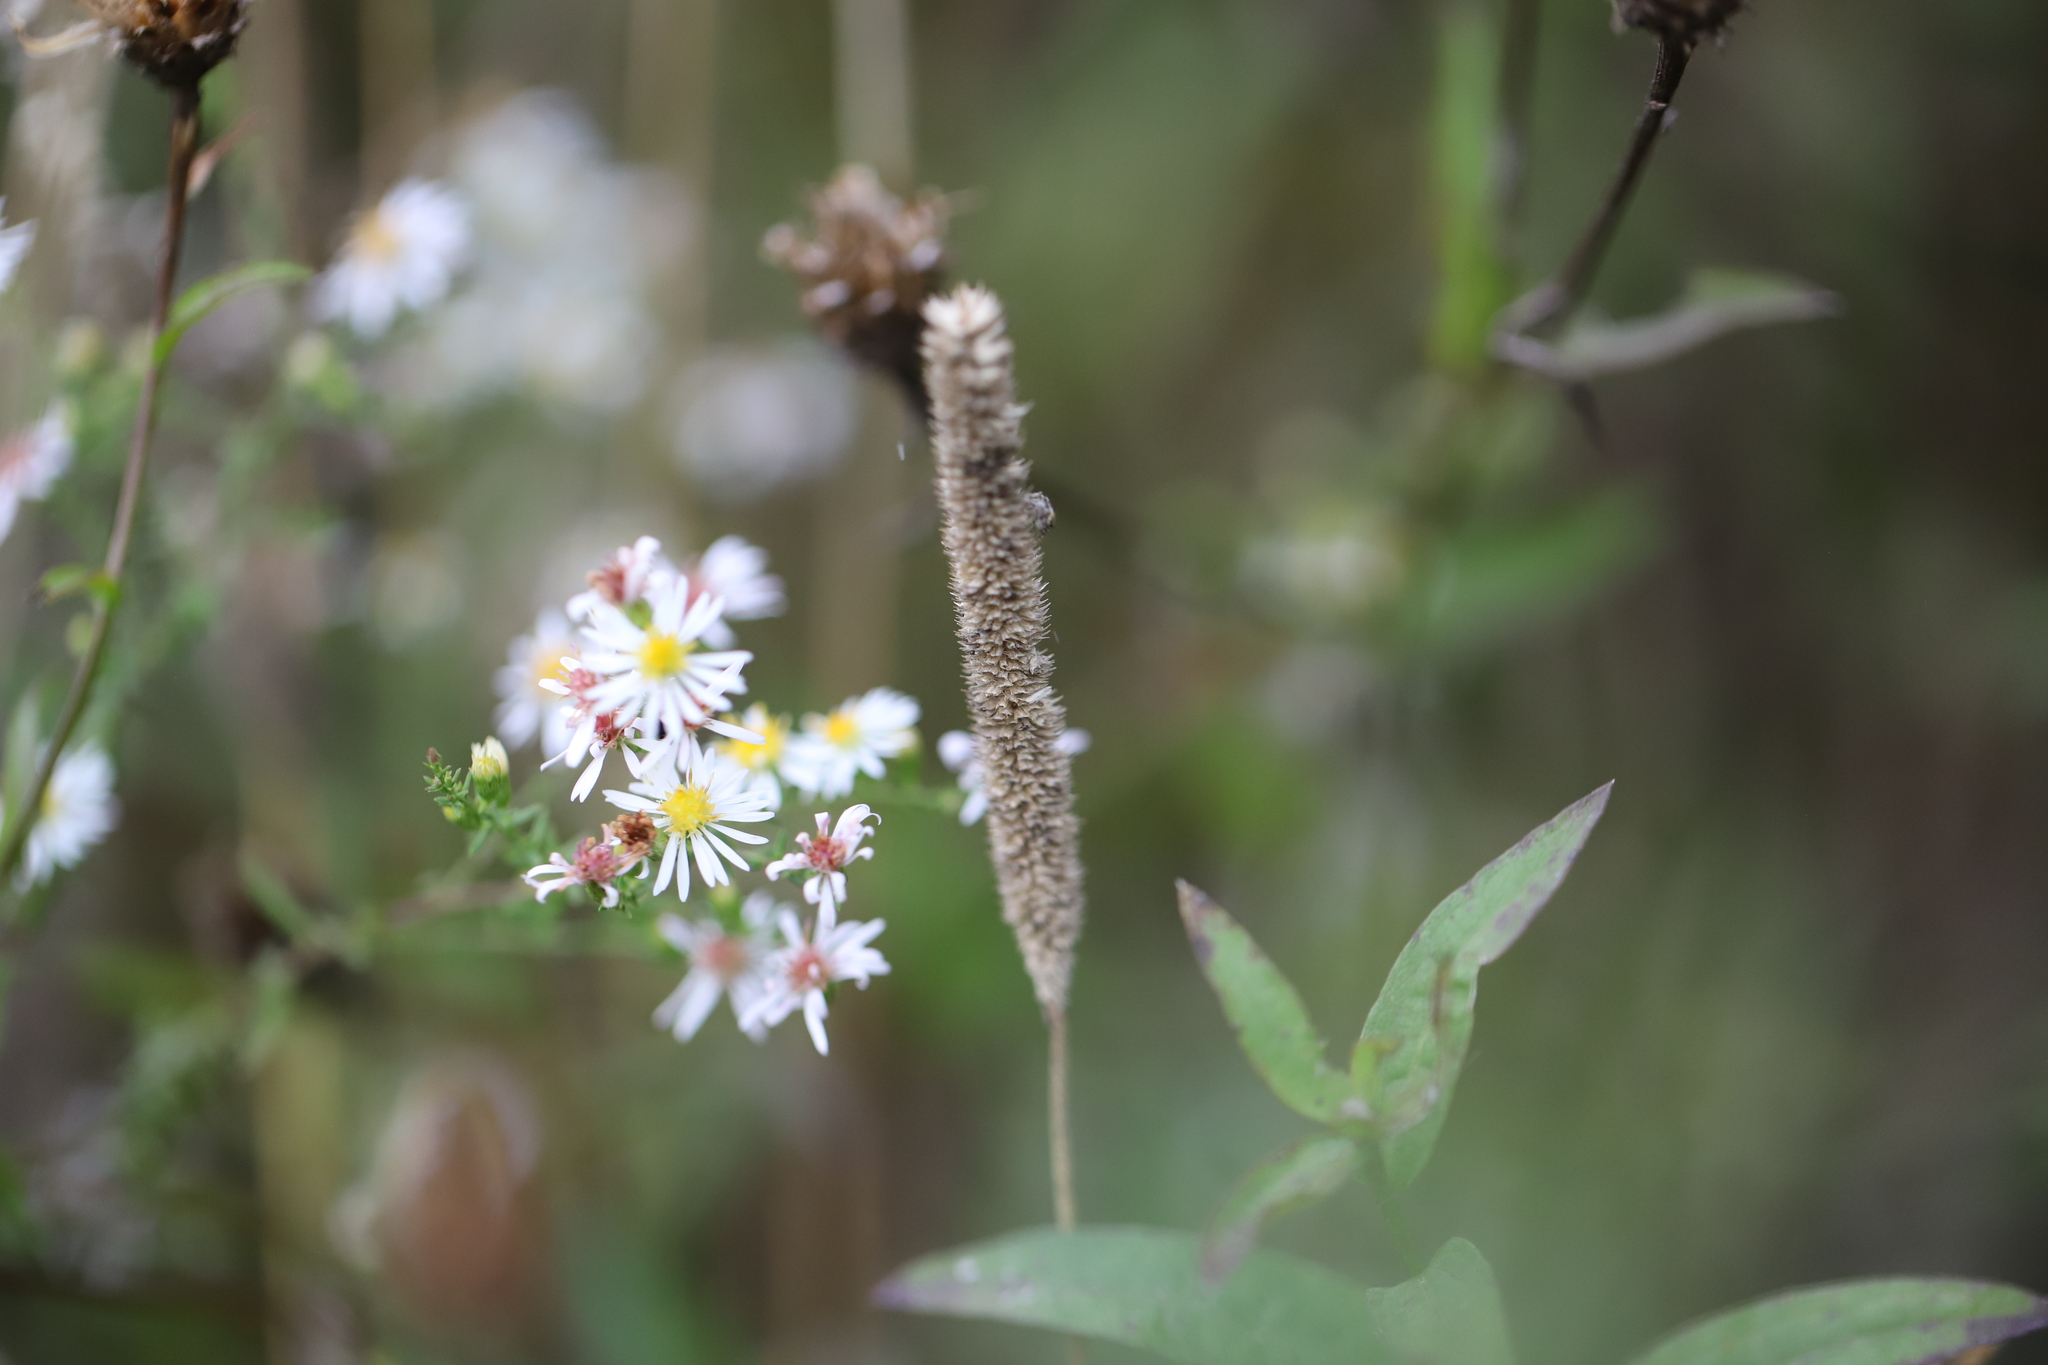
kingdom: Plantae
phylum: Tracheophyta
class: Liliopsida
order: Poales
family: Poaceae
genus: Phleum
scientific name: Phleum pratense
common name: Timothy grass
